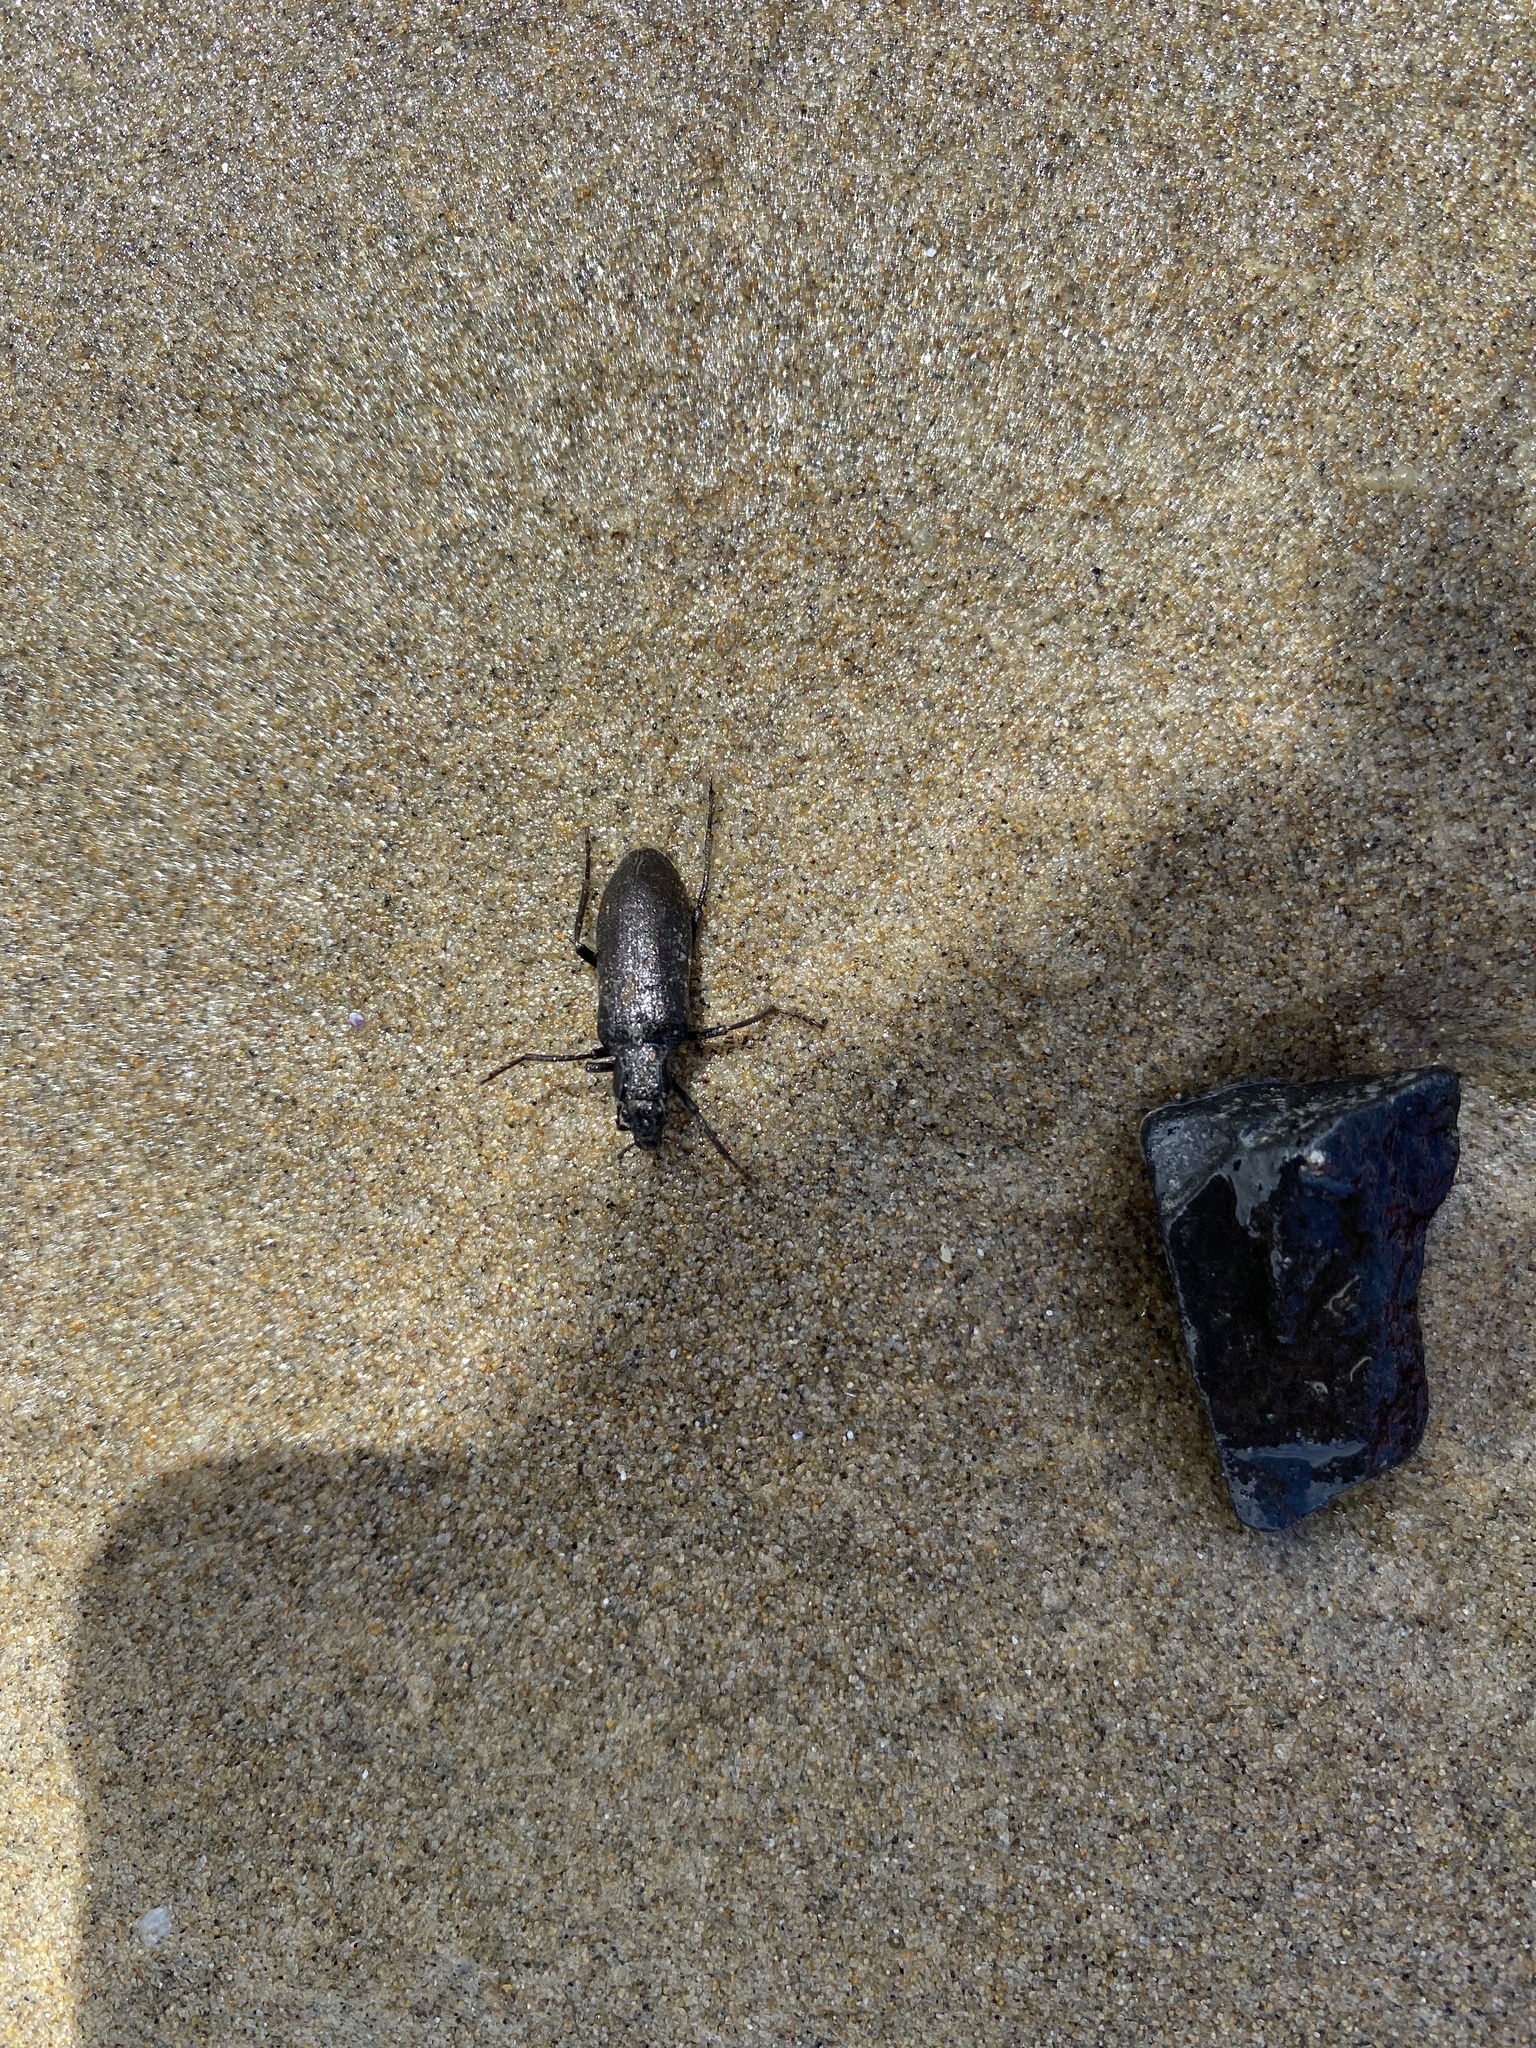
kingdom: Animalia
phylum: Arthropoda
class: Insecta
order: Coleoptera
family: Oedemeridae
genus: Ditylus
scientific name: Ditylus
